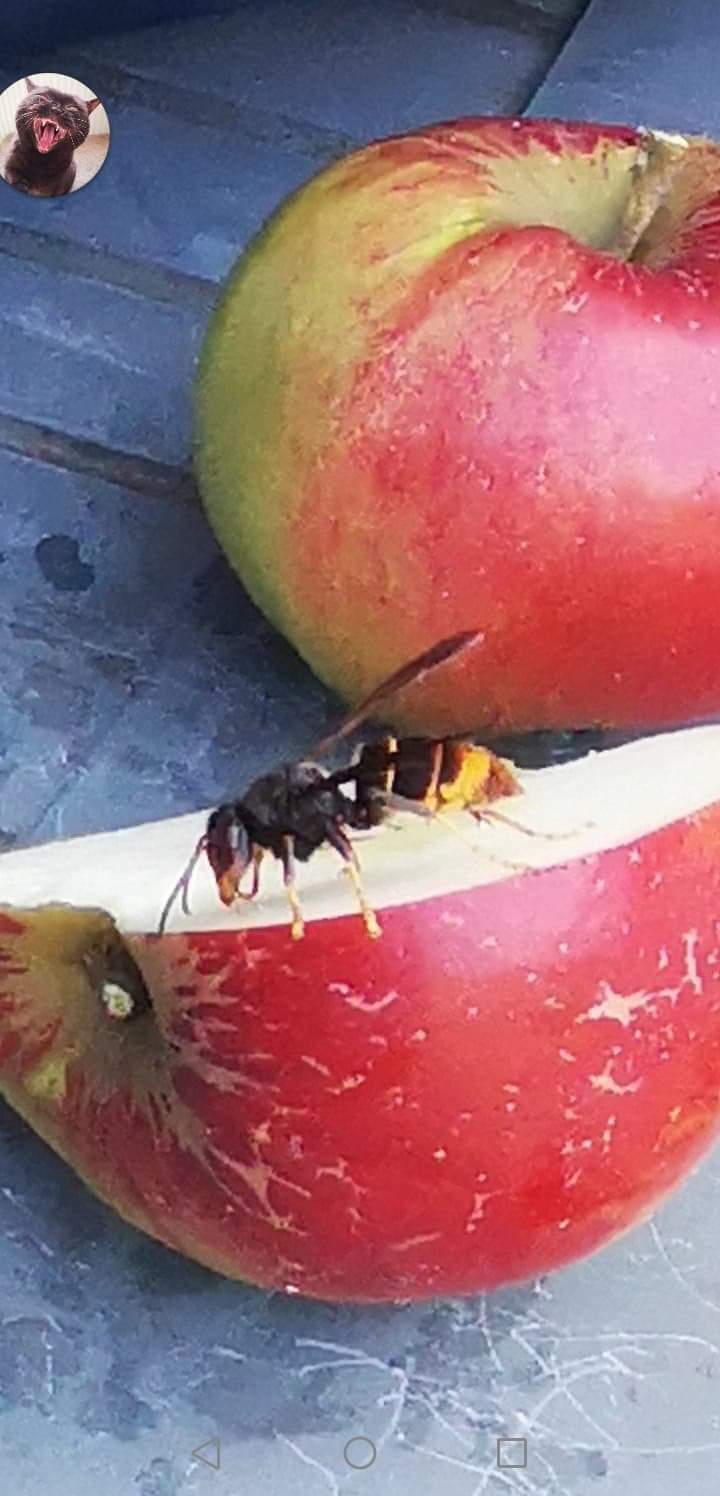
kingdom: Animalia
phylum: Arthropoda
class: Insecta
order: Hymenoptera
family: Vespidae
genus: Vespa
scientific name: Vespa velutina
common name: Asian hornet
